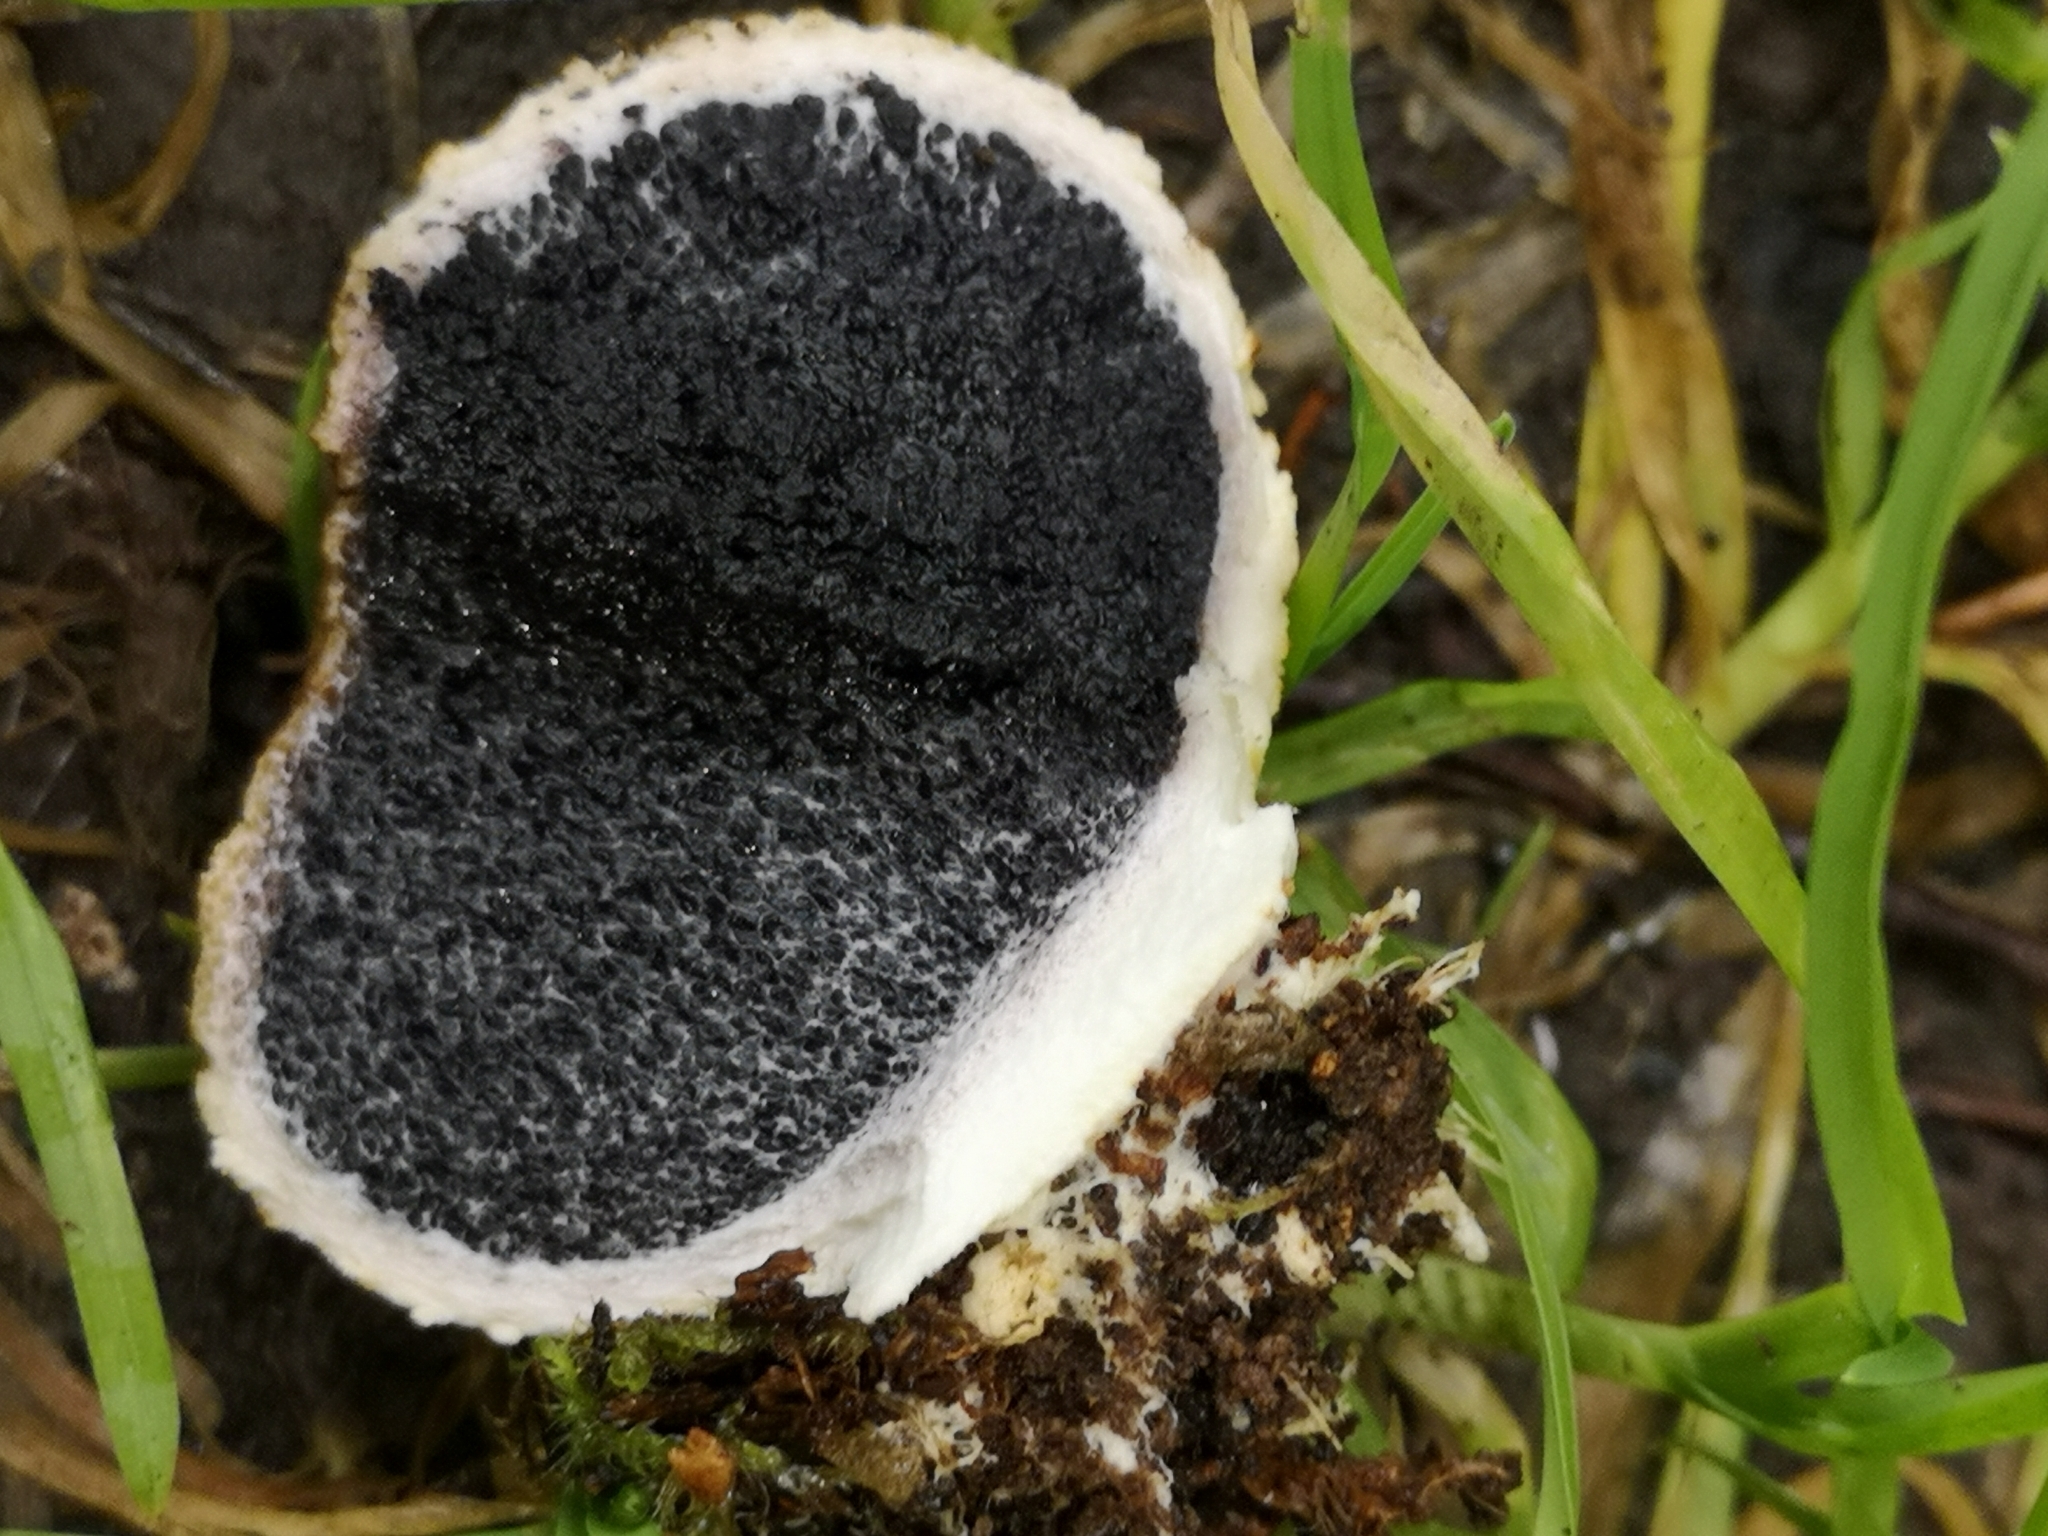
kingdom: Fungi
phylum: Basidiomycota
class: Agaricomycetes
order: Boletales
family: Sclerodermataceae
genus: Scleroderma
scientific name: Scleroderma citrinum
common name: Common earthball
